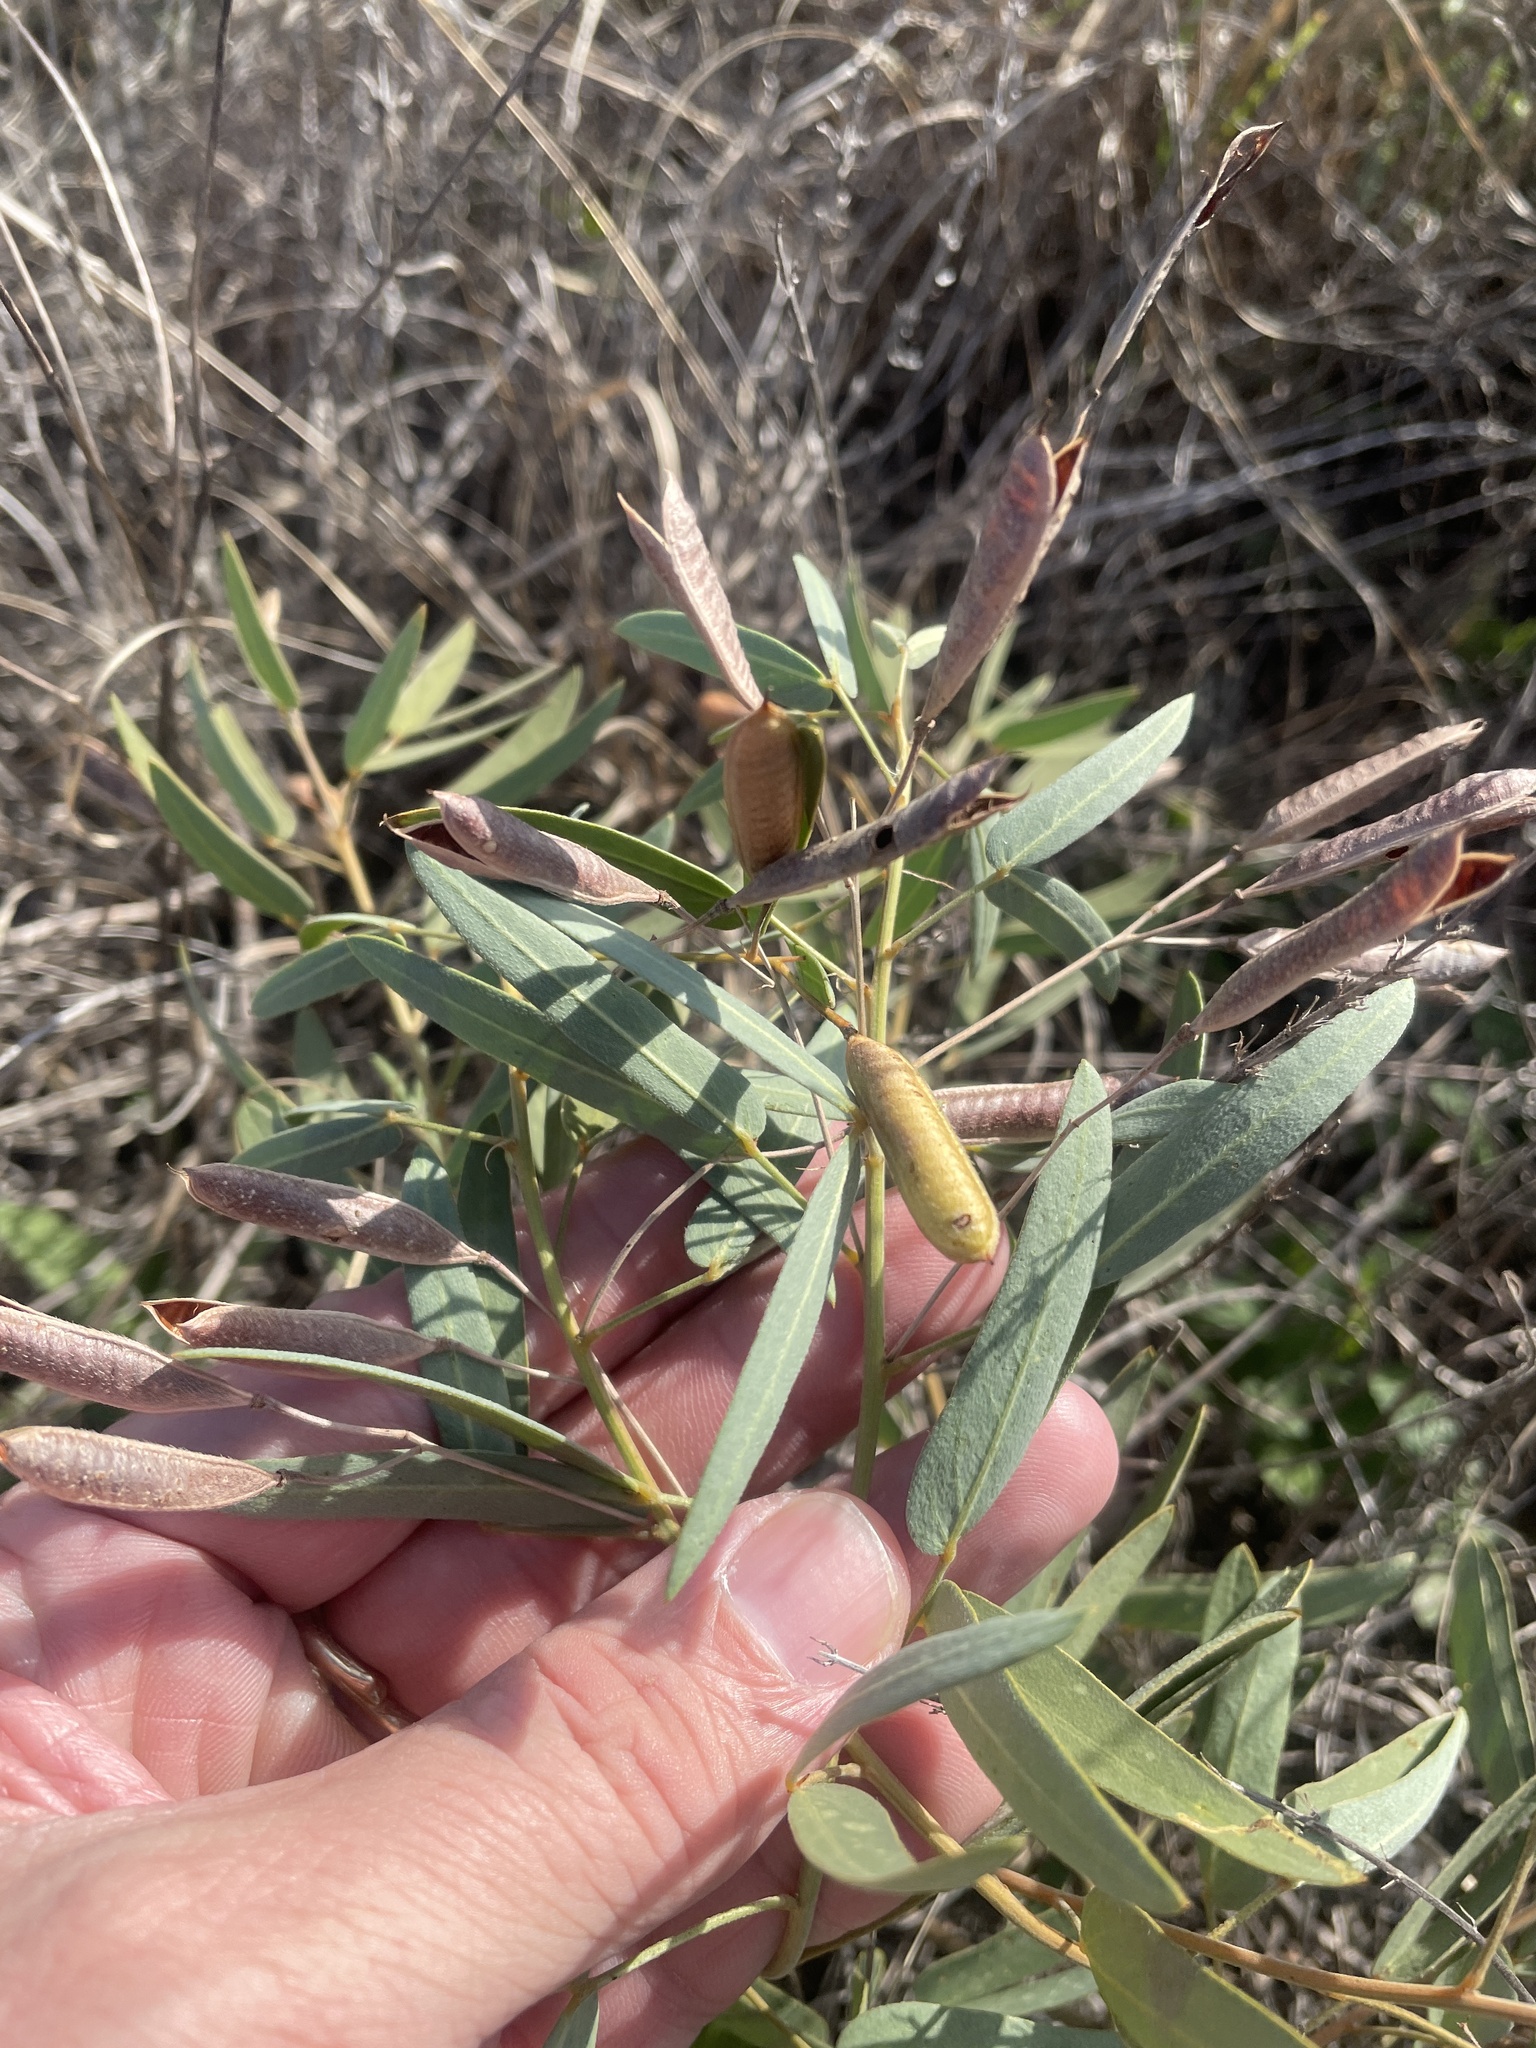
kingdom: Plantae
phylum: Tracheophyta
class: Magnoliopsida
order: Fabales
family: Fabaceae
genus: Senna
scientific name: Senna roemeriana
